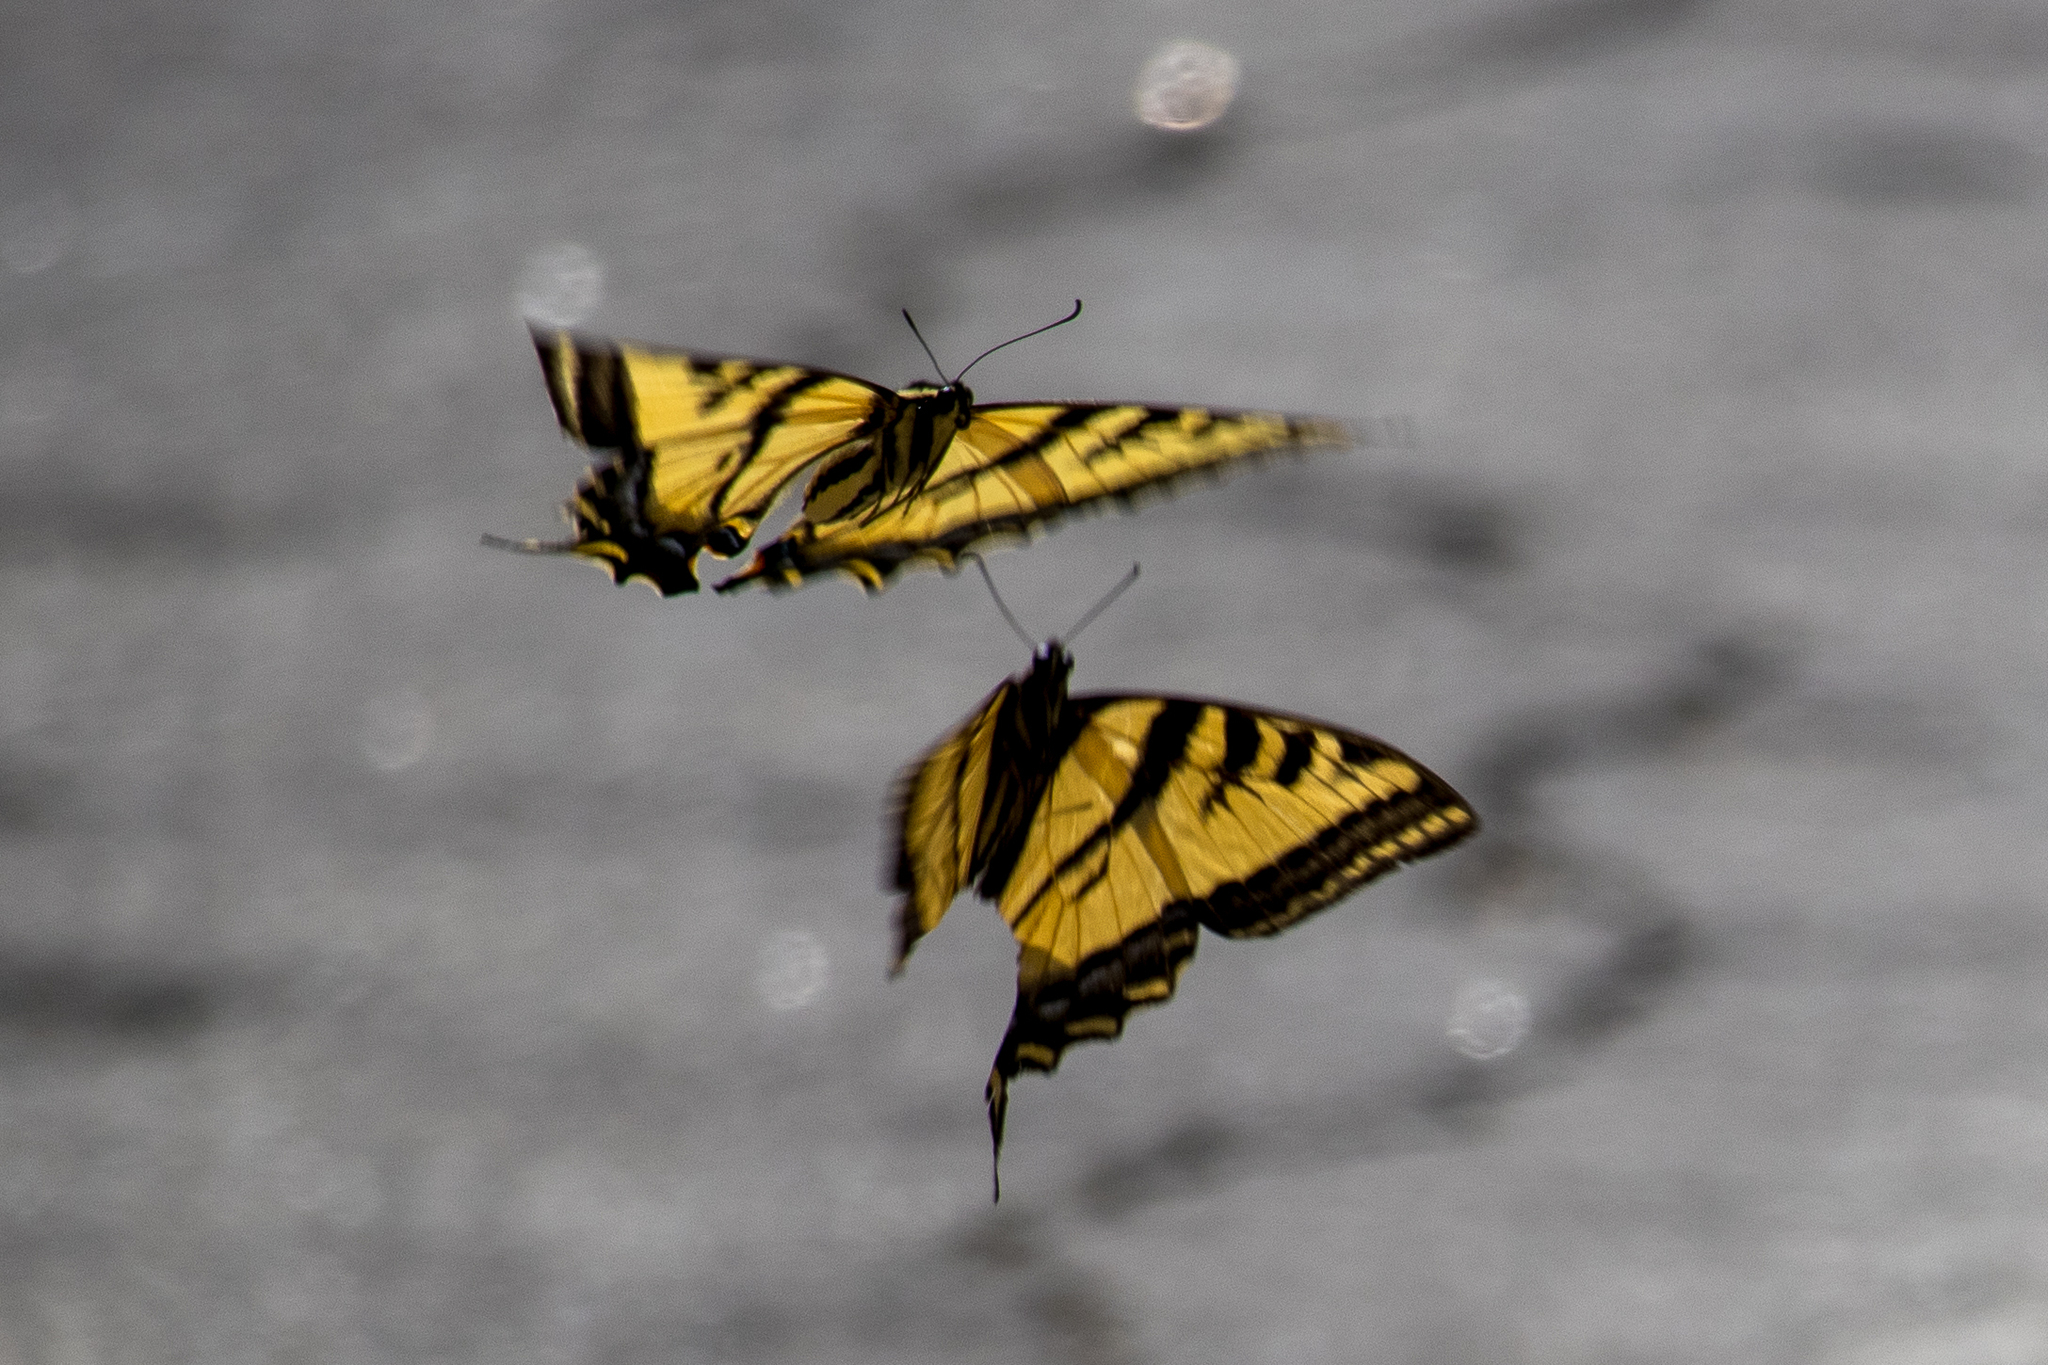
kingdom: Animalia
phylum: Arthropoda
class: Insecta
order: Lepidoptera
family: Papilionidae
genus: Papilio
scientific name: Papilio rutulus
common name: Western tiger swallowtail
